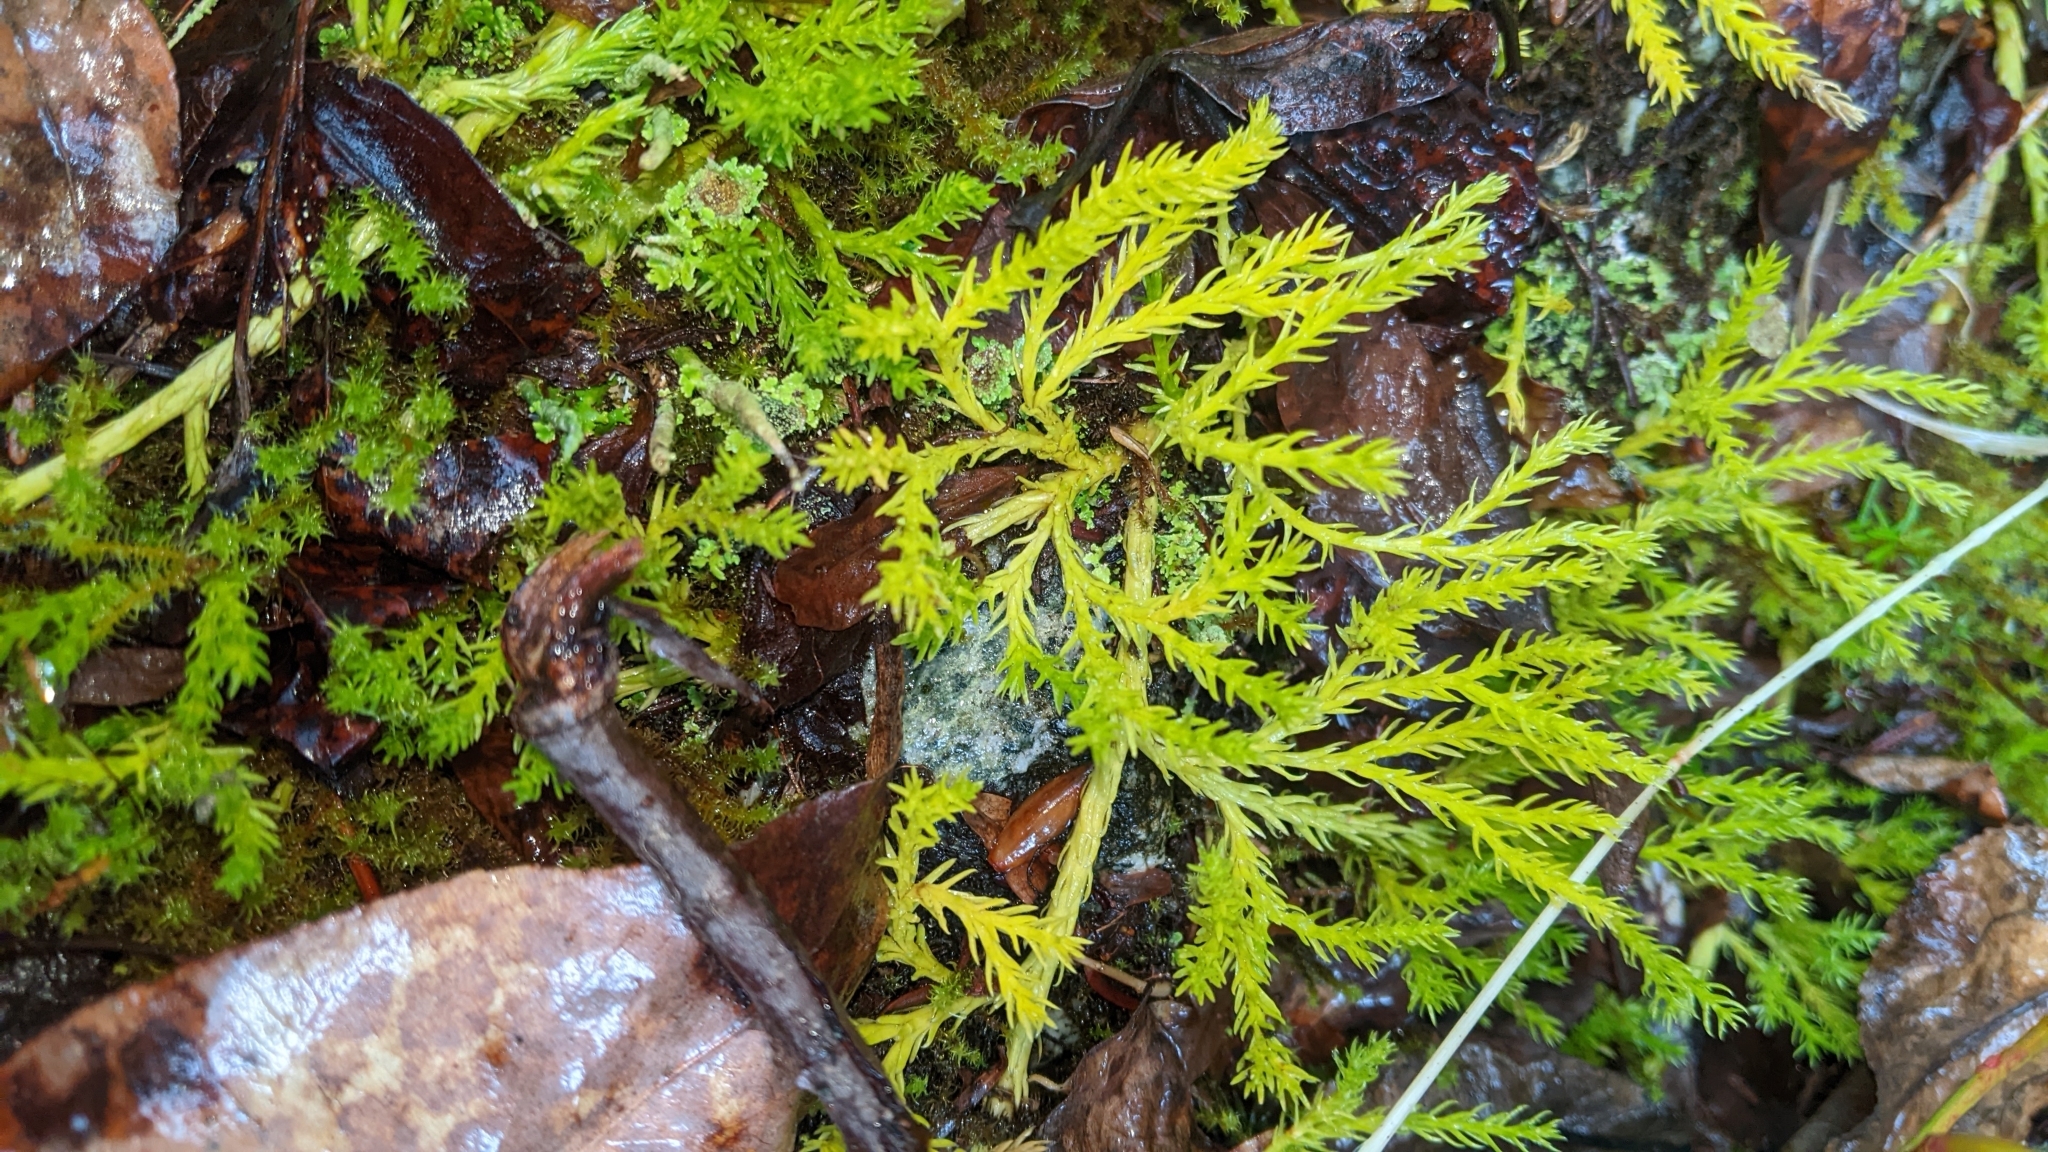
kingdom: Plantae
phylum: Tracheophyta
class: Lycopodiopsida
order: Lycopodiales
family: Lycopodiaceae
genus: Diphasiastrum
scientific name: Diphasiastrum sitchense
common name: Alaska clubmoss
